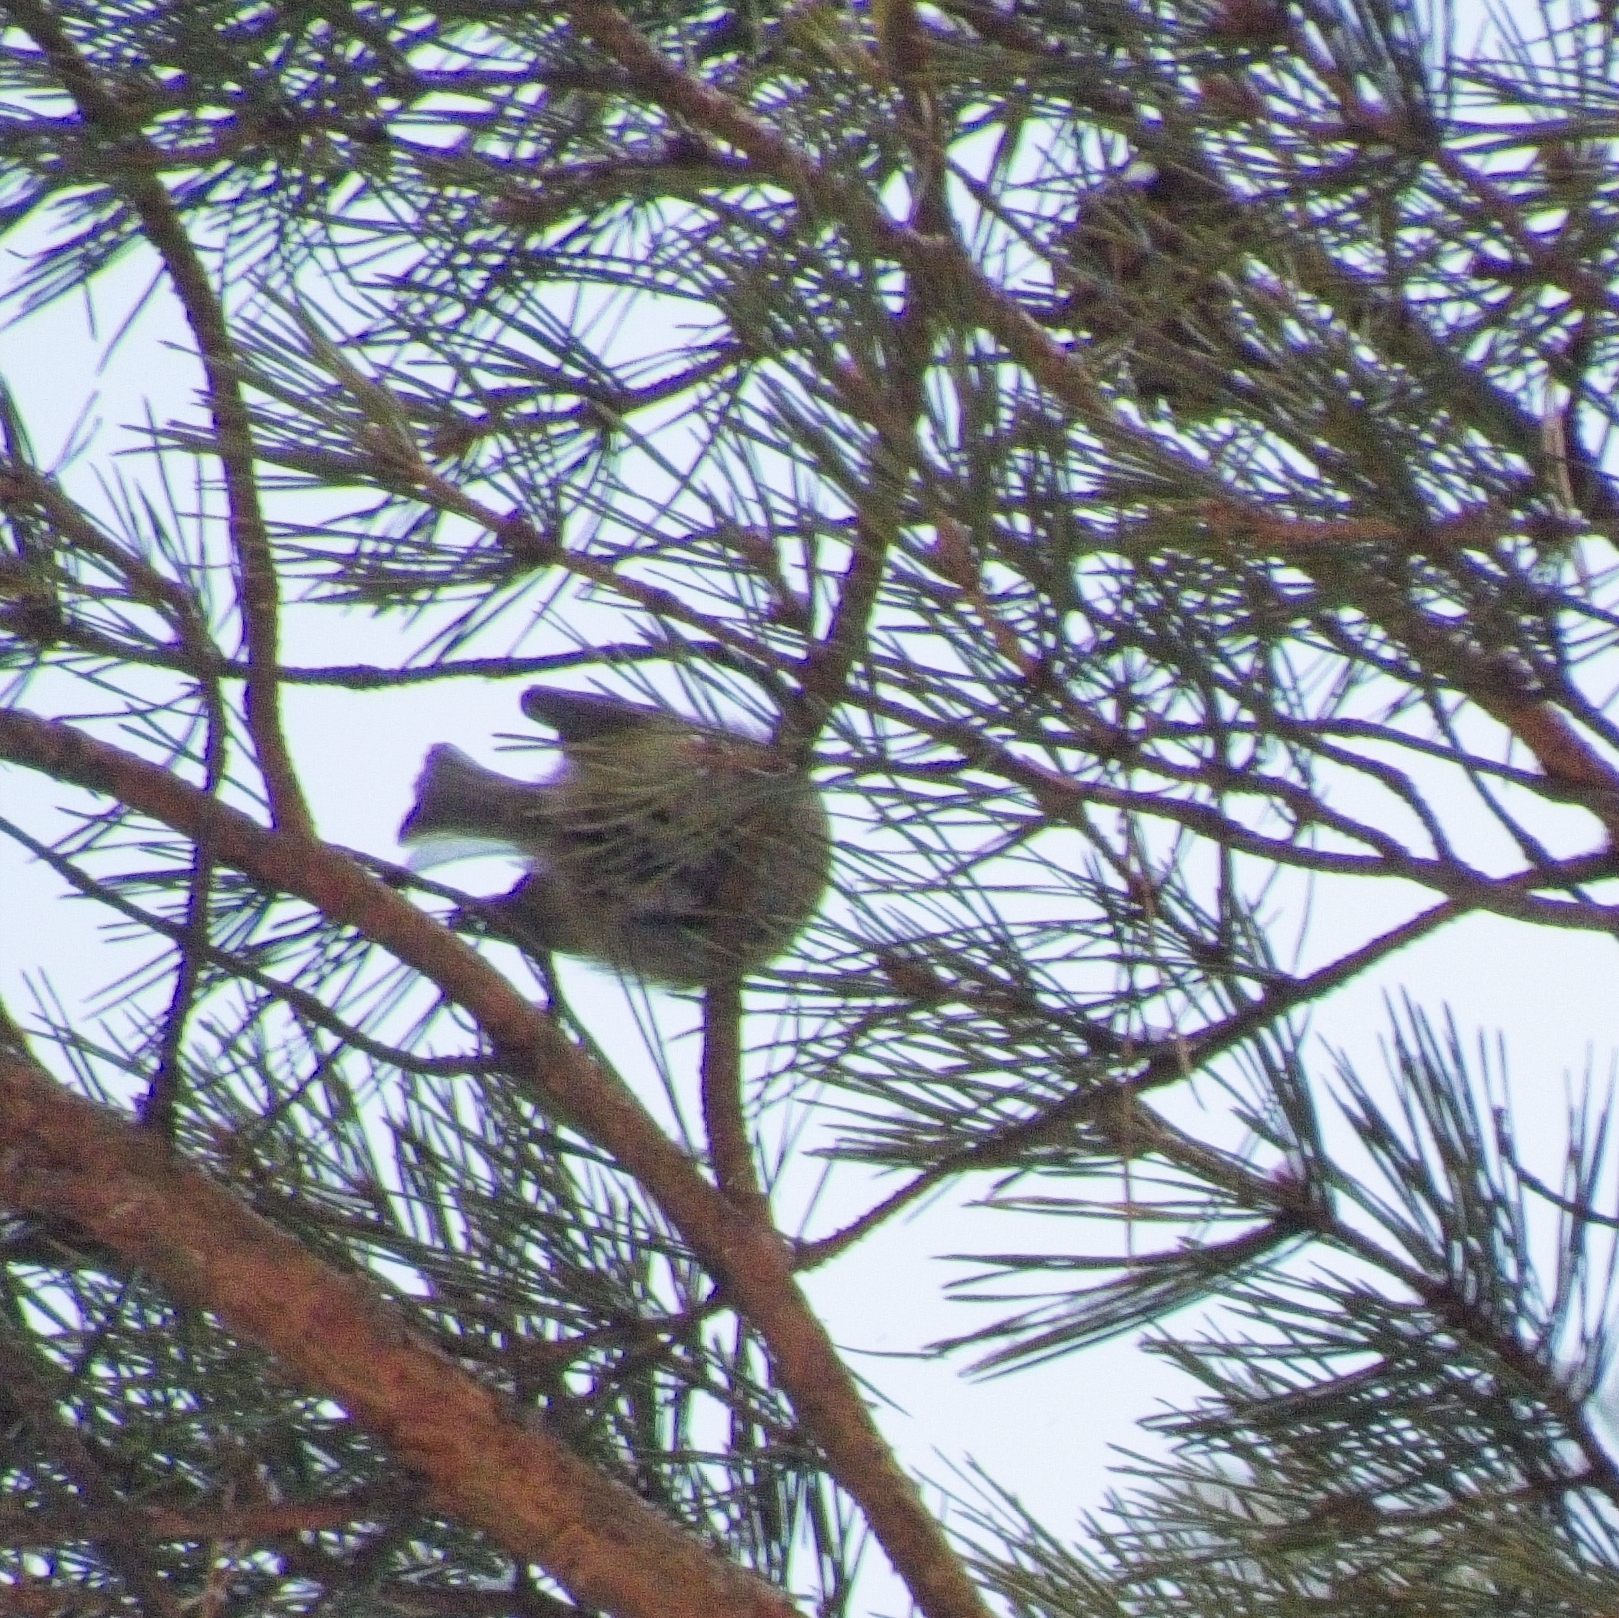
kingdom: Animalia
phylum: Chordata
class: Aves
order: Passeriformes
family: Regulidae
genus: Regulus
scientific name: Regulus regulus
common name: Goldcrest
